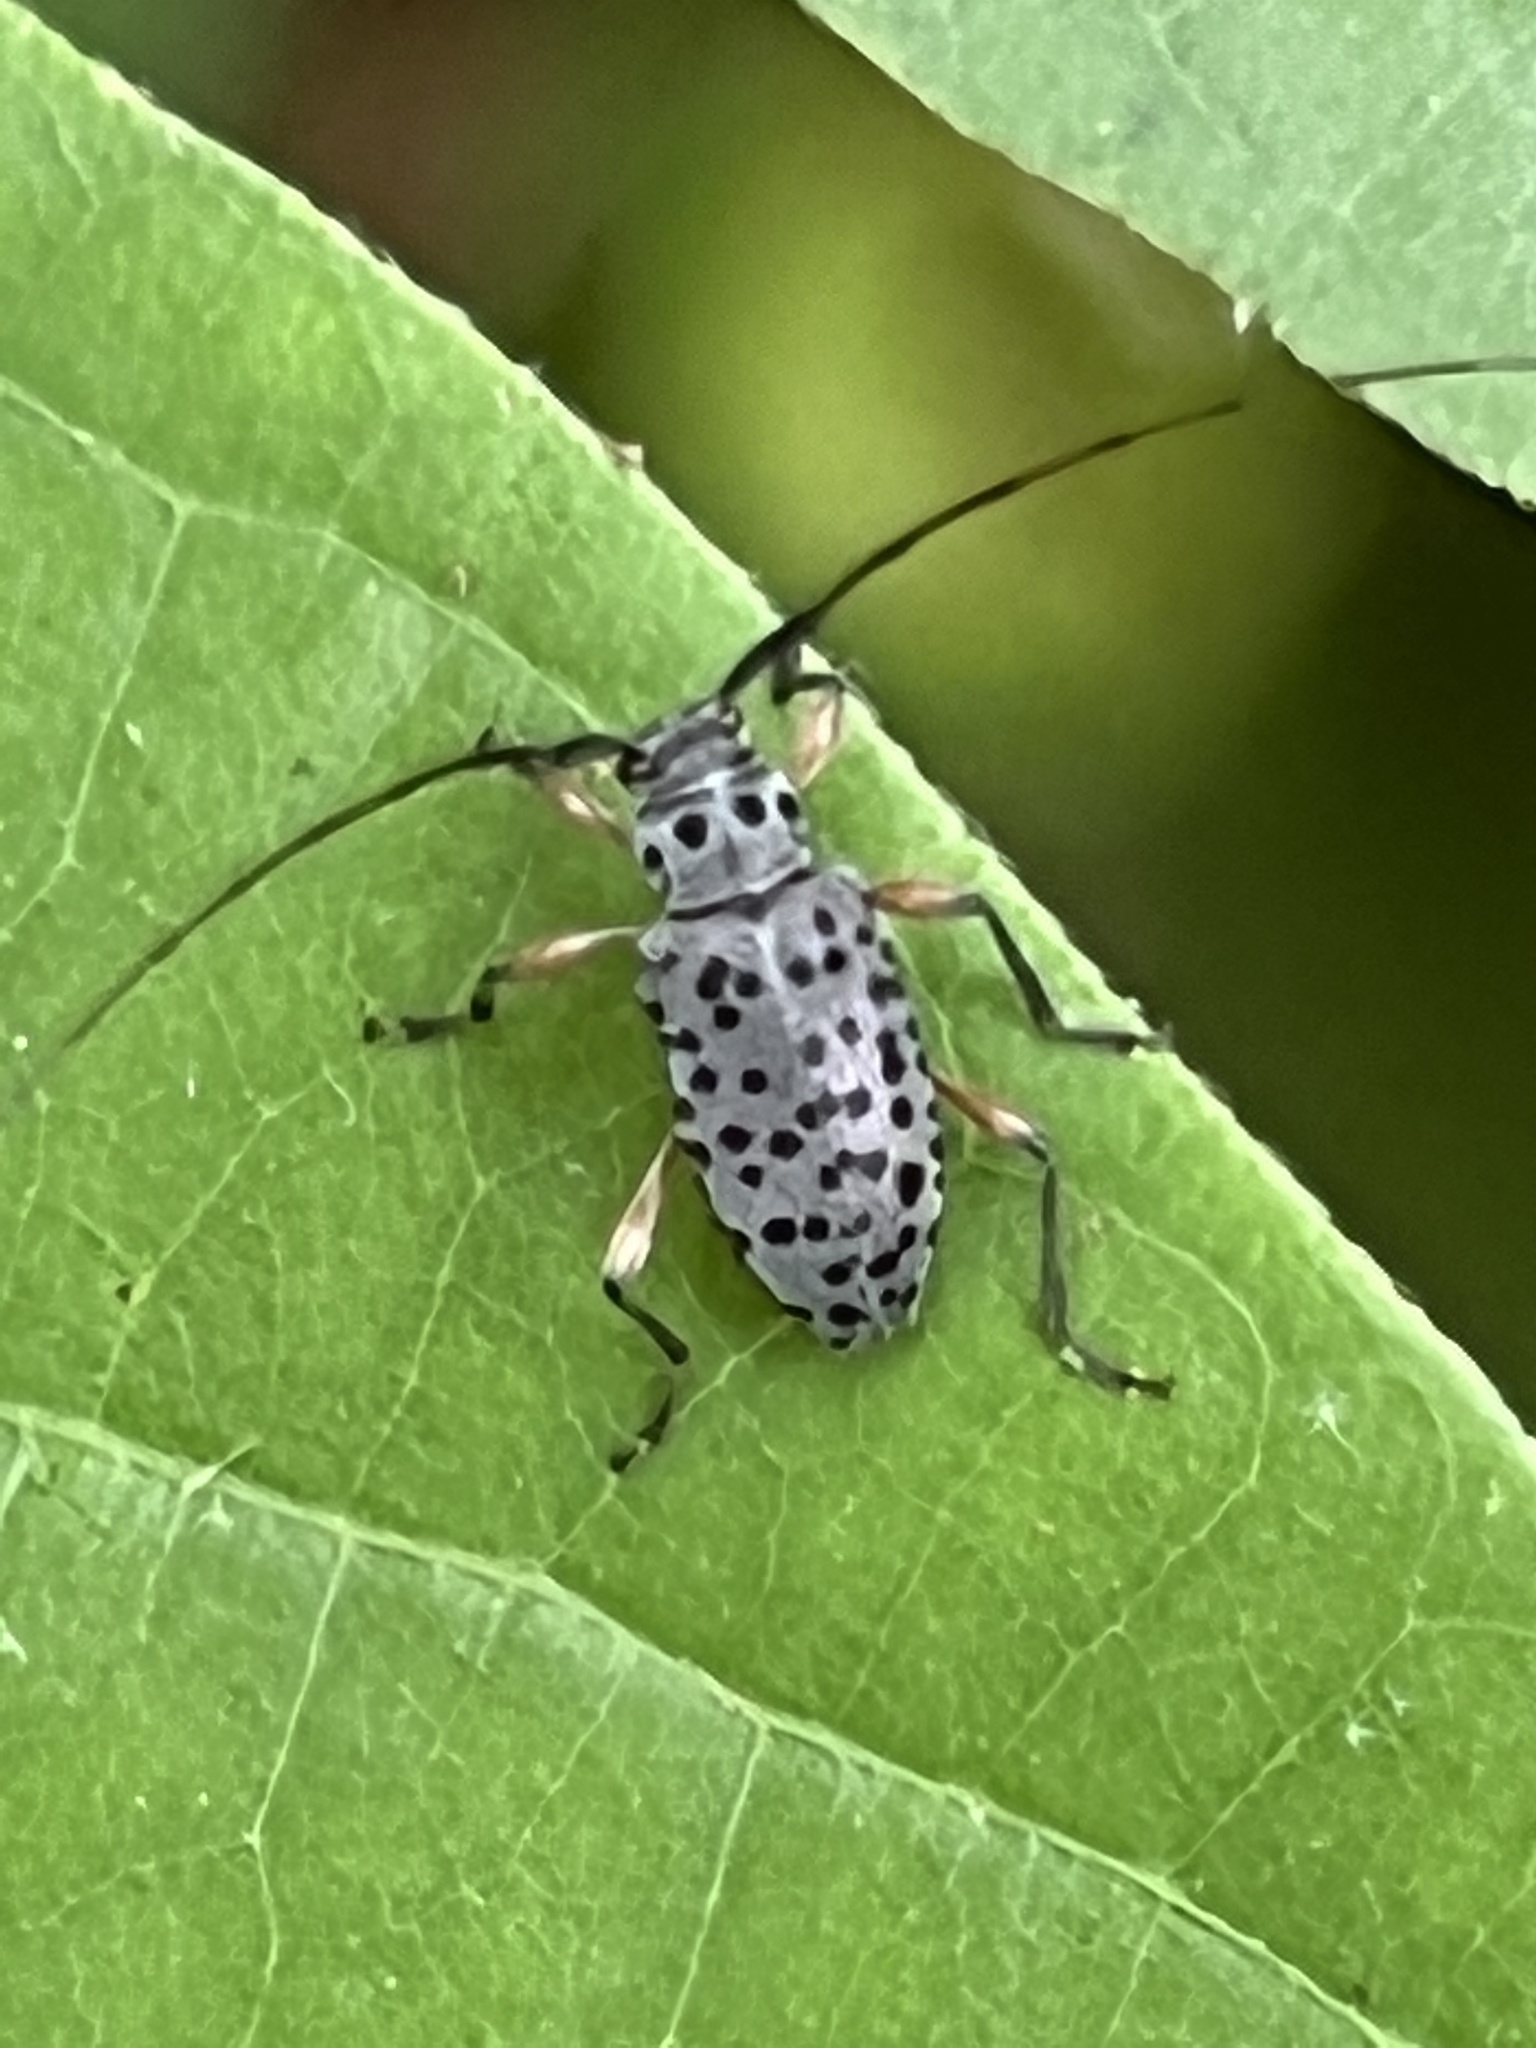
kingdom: Animalia
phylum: Arthropoda
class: Insecta
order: Coleoptera
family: Cerambycidae
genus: Hyperplatys
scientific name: Hyperplatys aspersa
